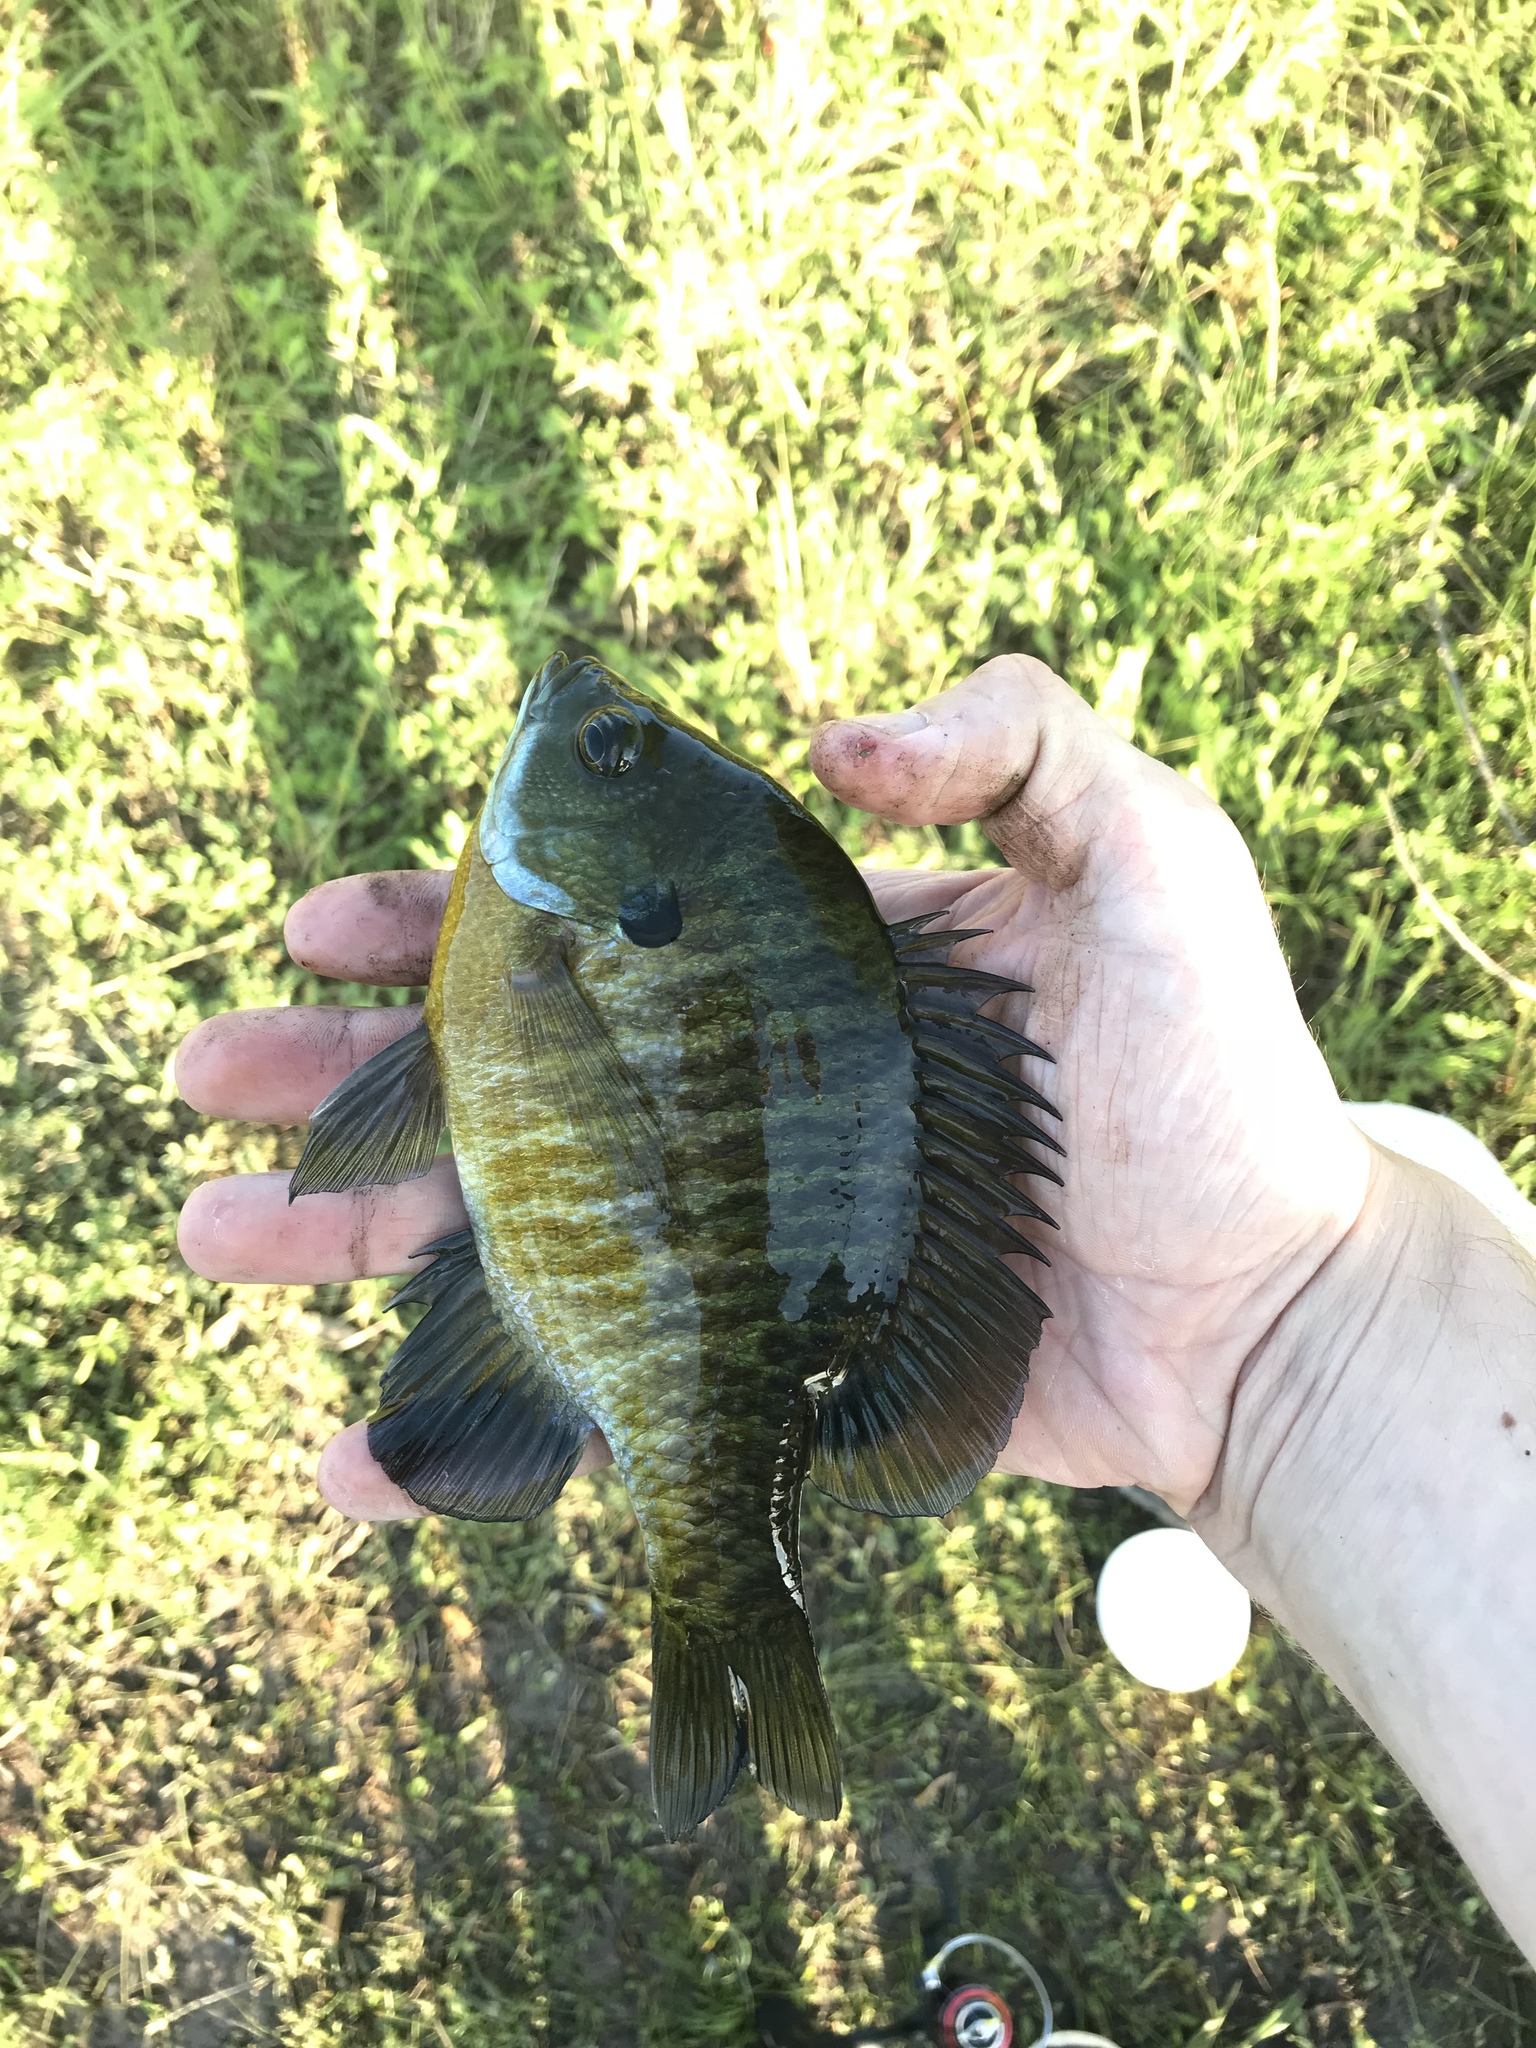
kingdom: Animalia
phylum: Chordata
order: Perciformes
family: Centrarchidae
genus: Lepomis
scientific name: Lepomis macrochirus
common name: Bluegill
